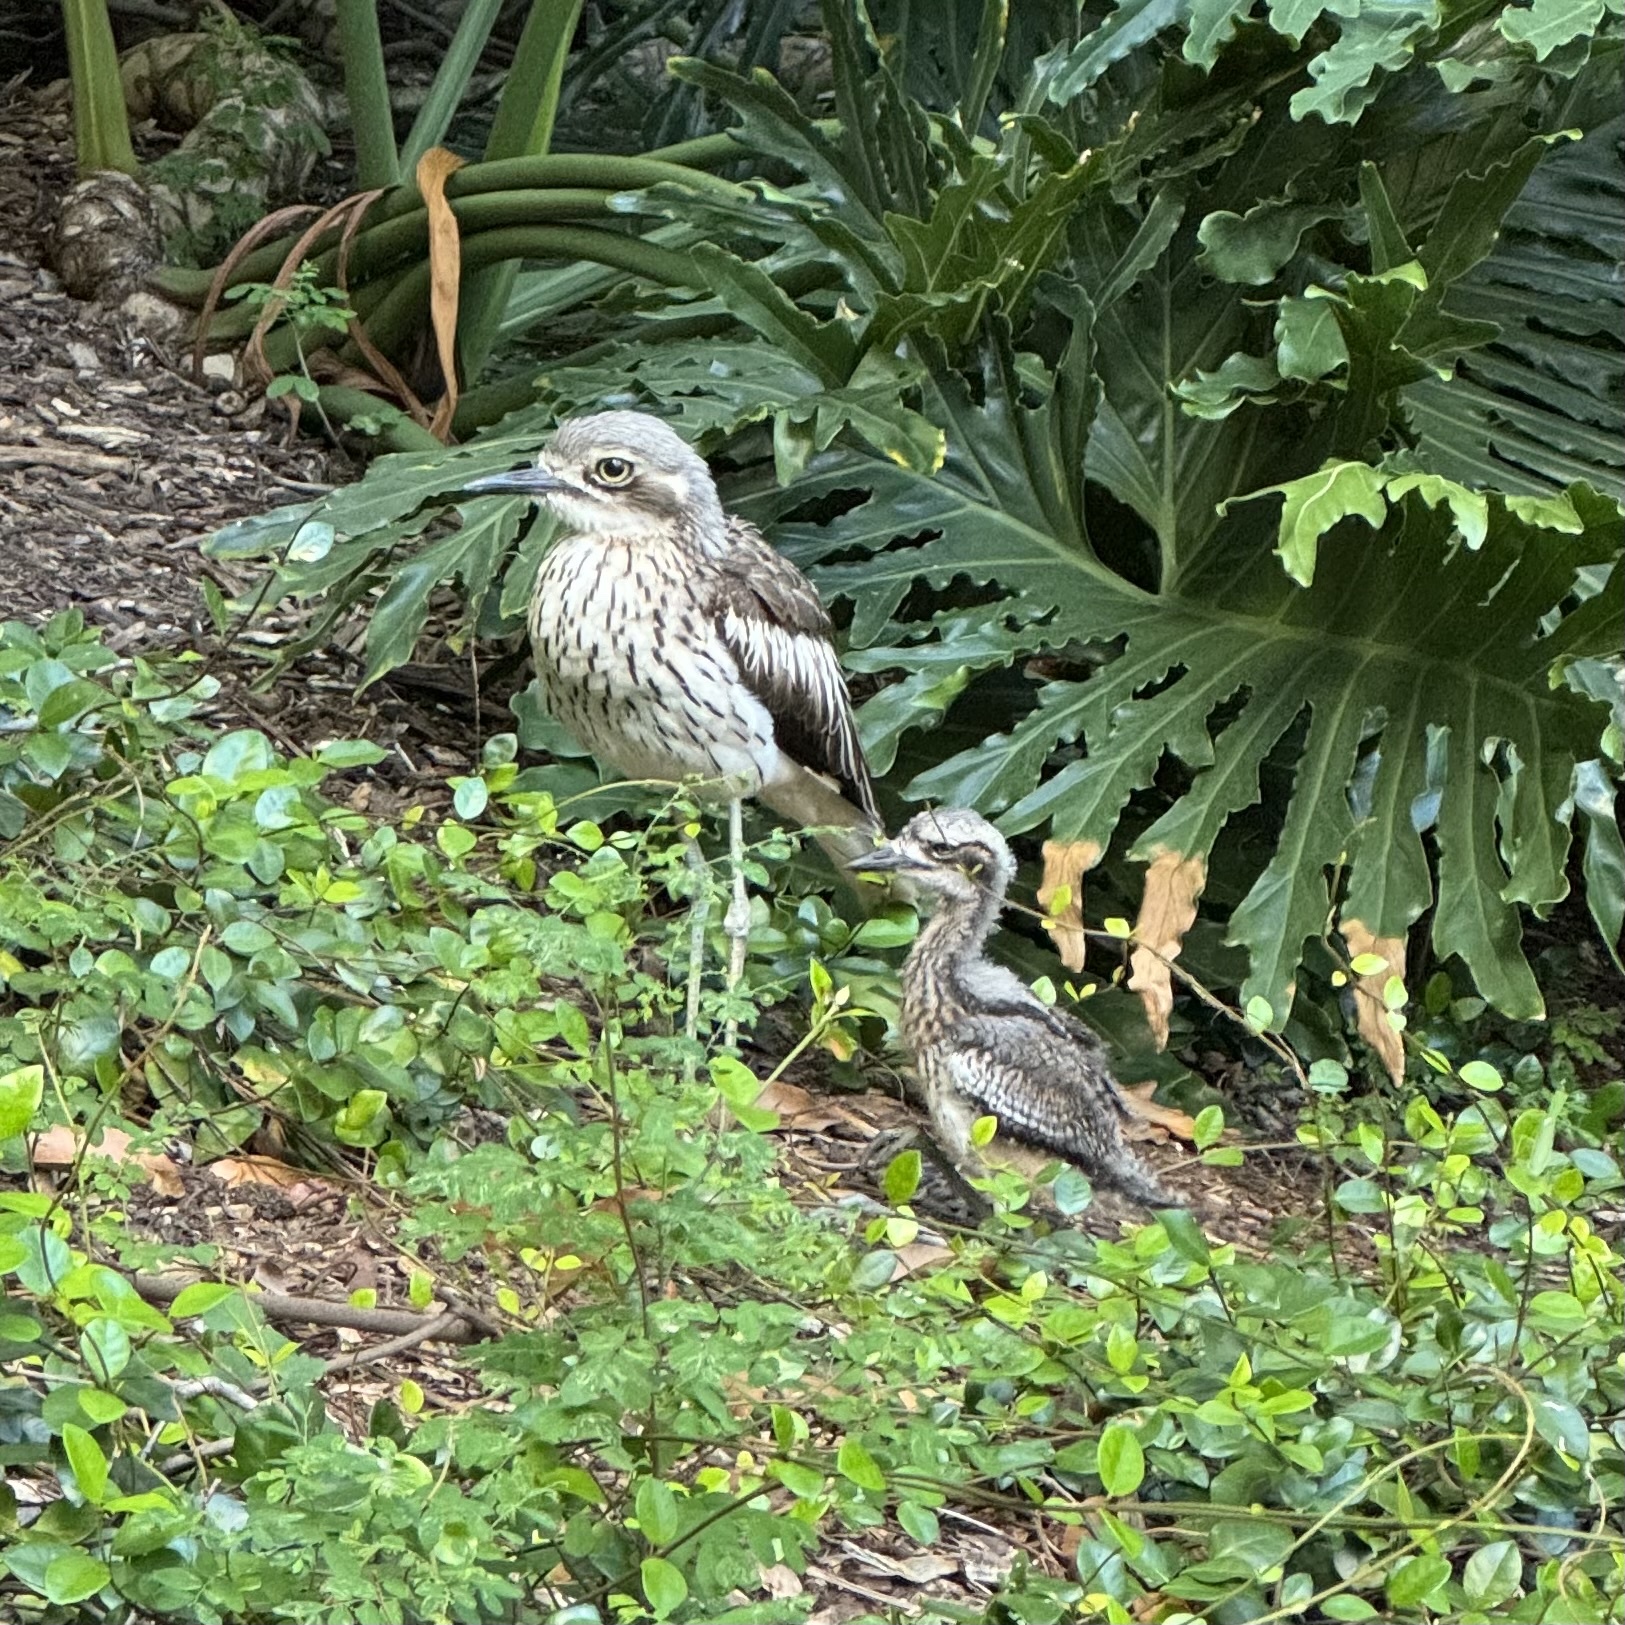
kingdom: Animalia
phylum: Chordata
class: Aves
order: Charadriiformes
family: Burhinidae
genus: Burhinus
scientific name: Burhinus grallarius
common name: Bush stone-curlew
